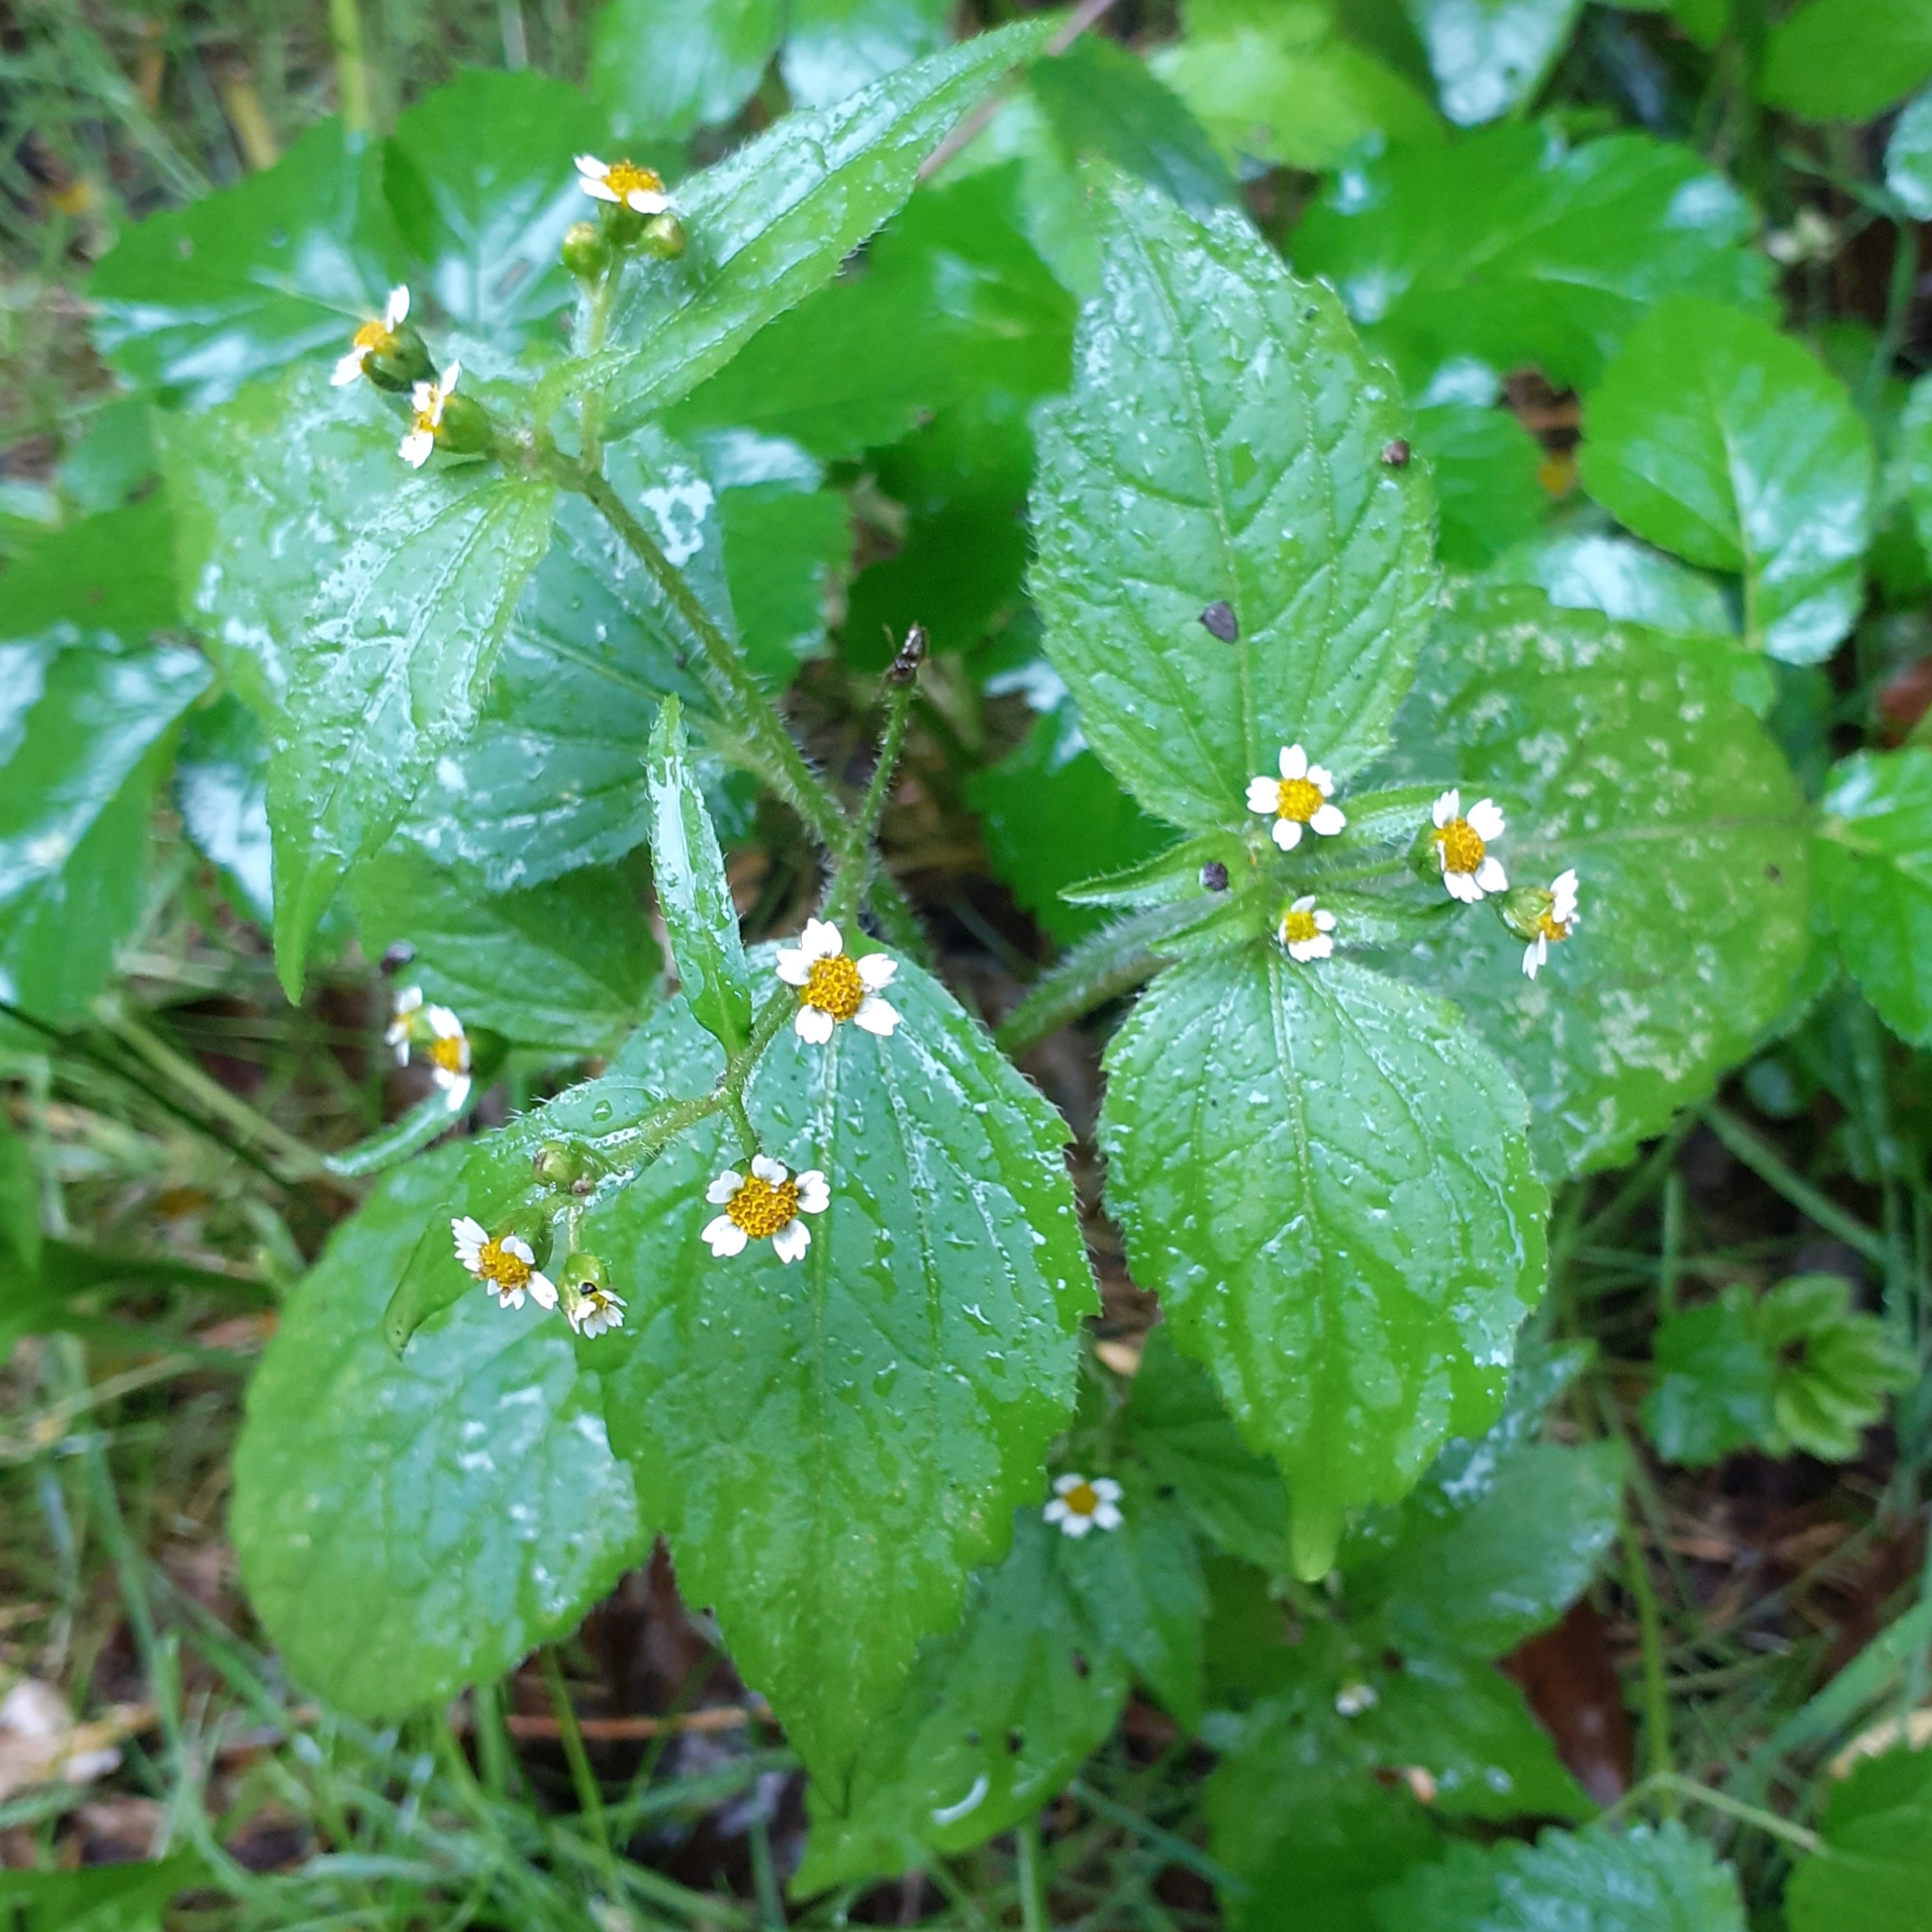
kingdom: Plantae
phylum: Tracheophyta
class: Magnoliopsida
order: Asterales
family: Asteraceae
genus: Galinsoga
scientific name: Galinsoga quadriradiata
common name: Shaggy soldier
